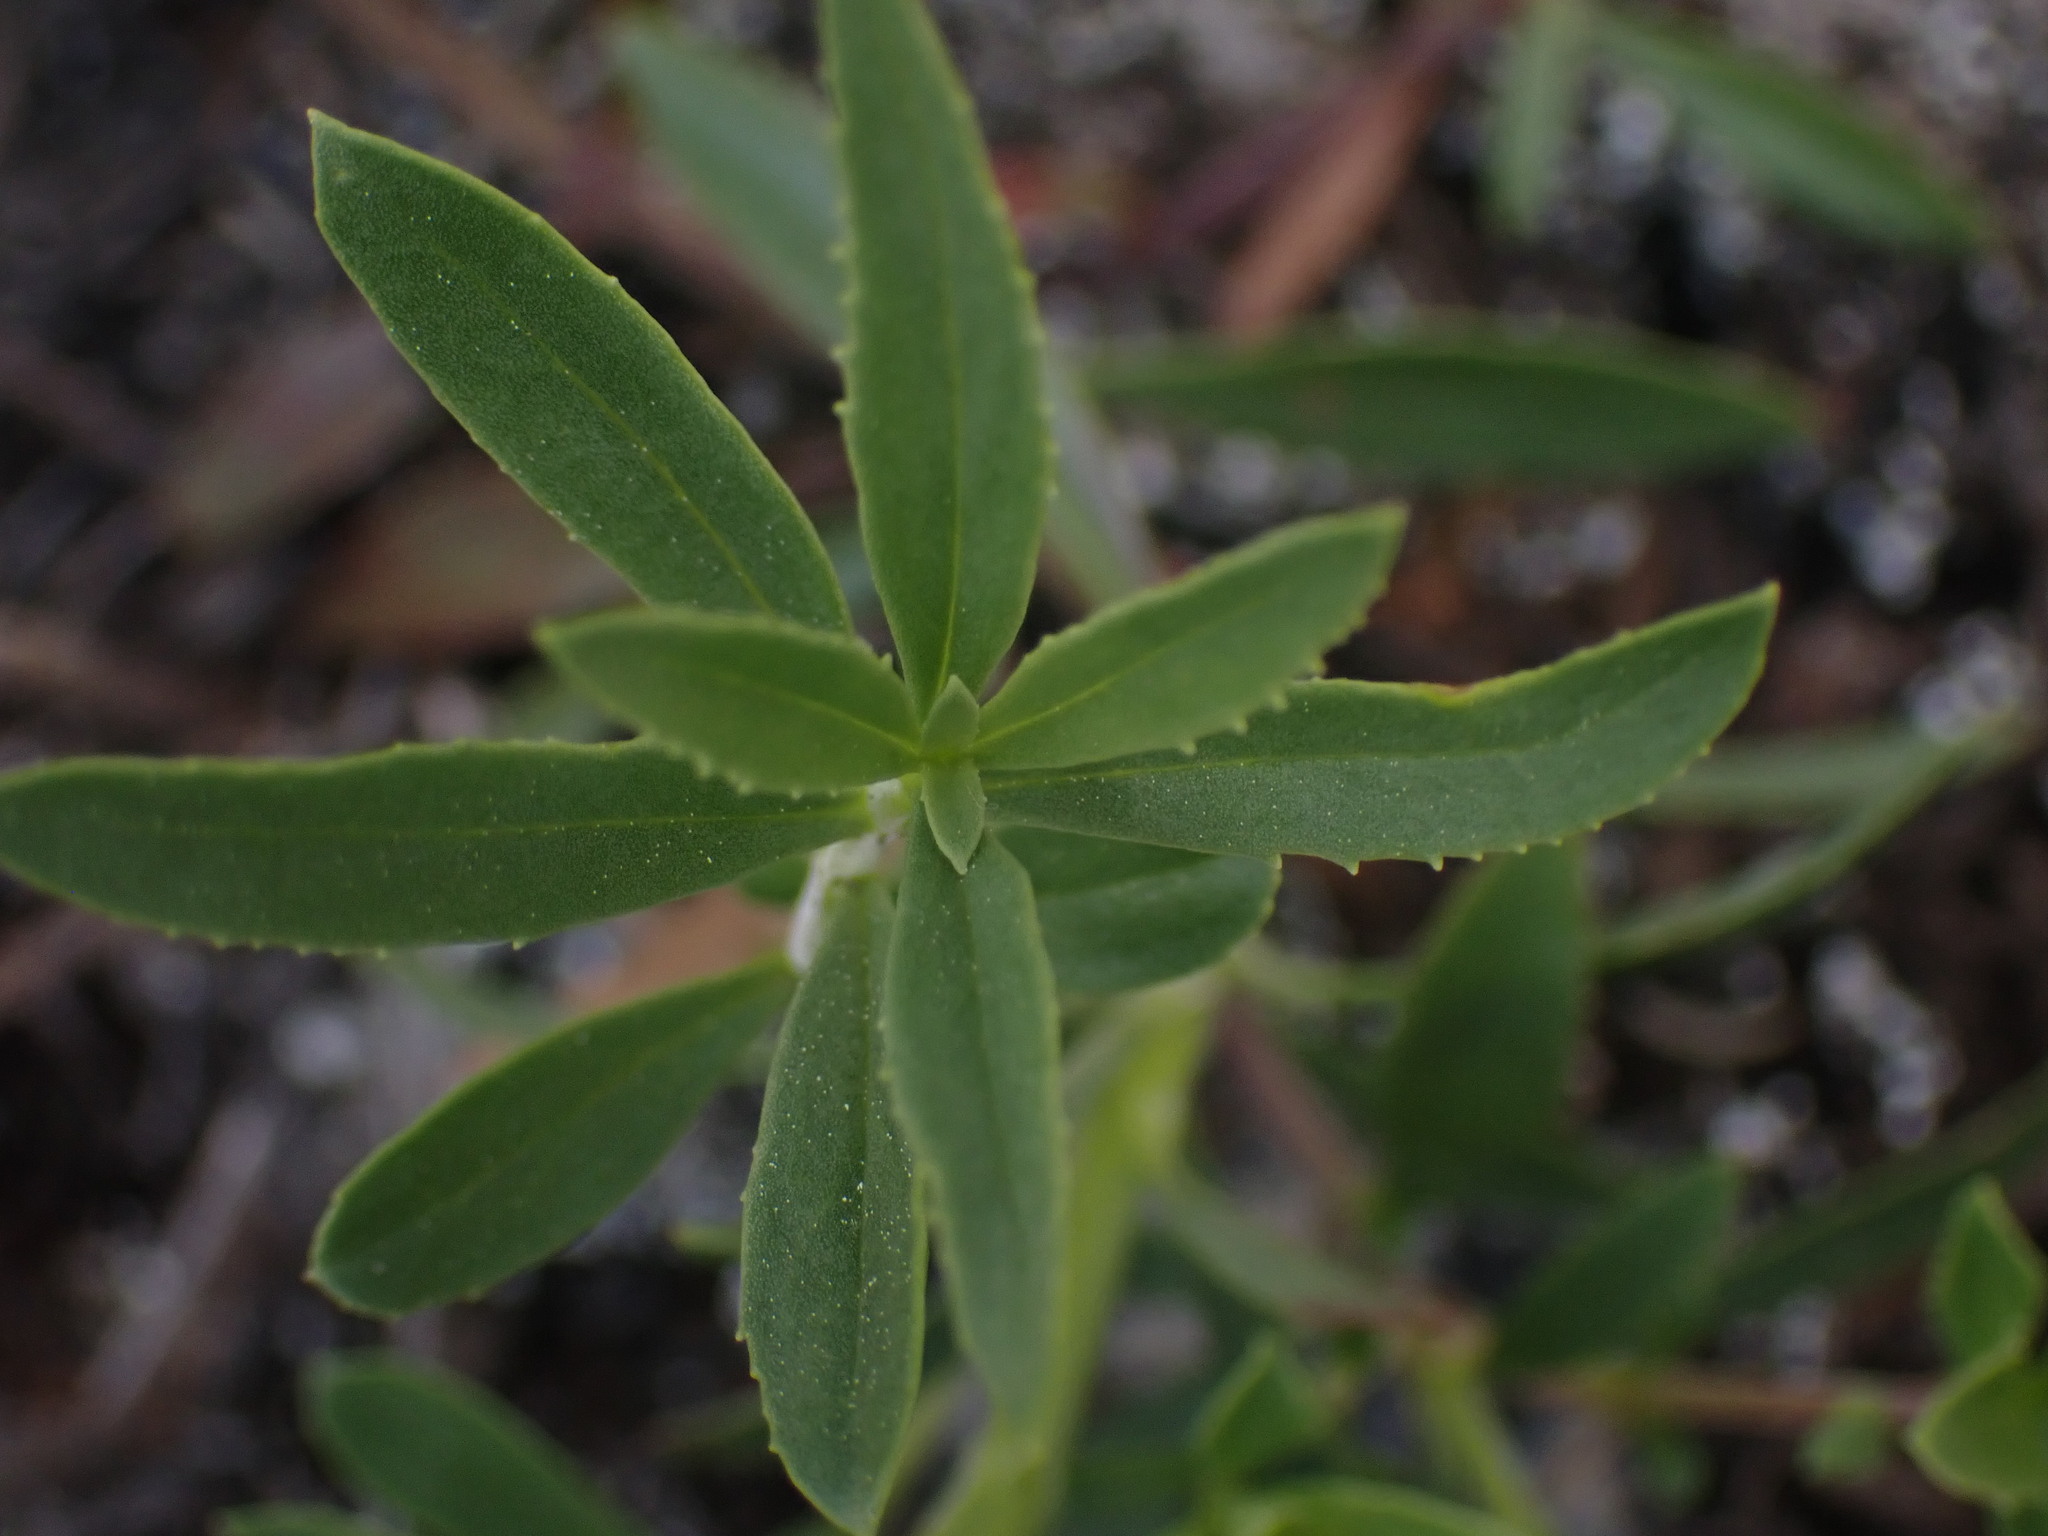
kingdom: Plantae
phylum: Tracheophyta
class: Magnoliopsida
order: Lamiales
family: Plantaginaceae
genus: Penstemon
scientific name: Penstemon fruticosus
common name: Bush penstemon
